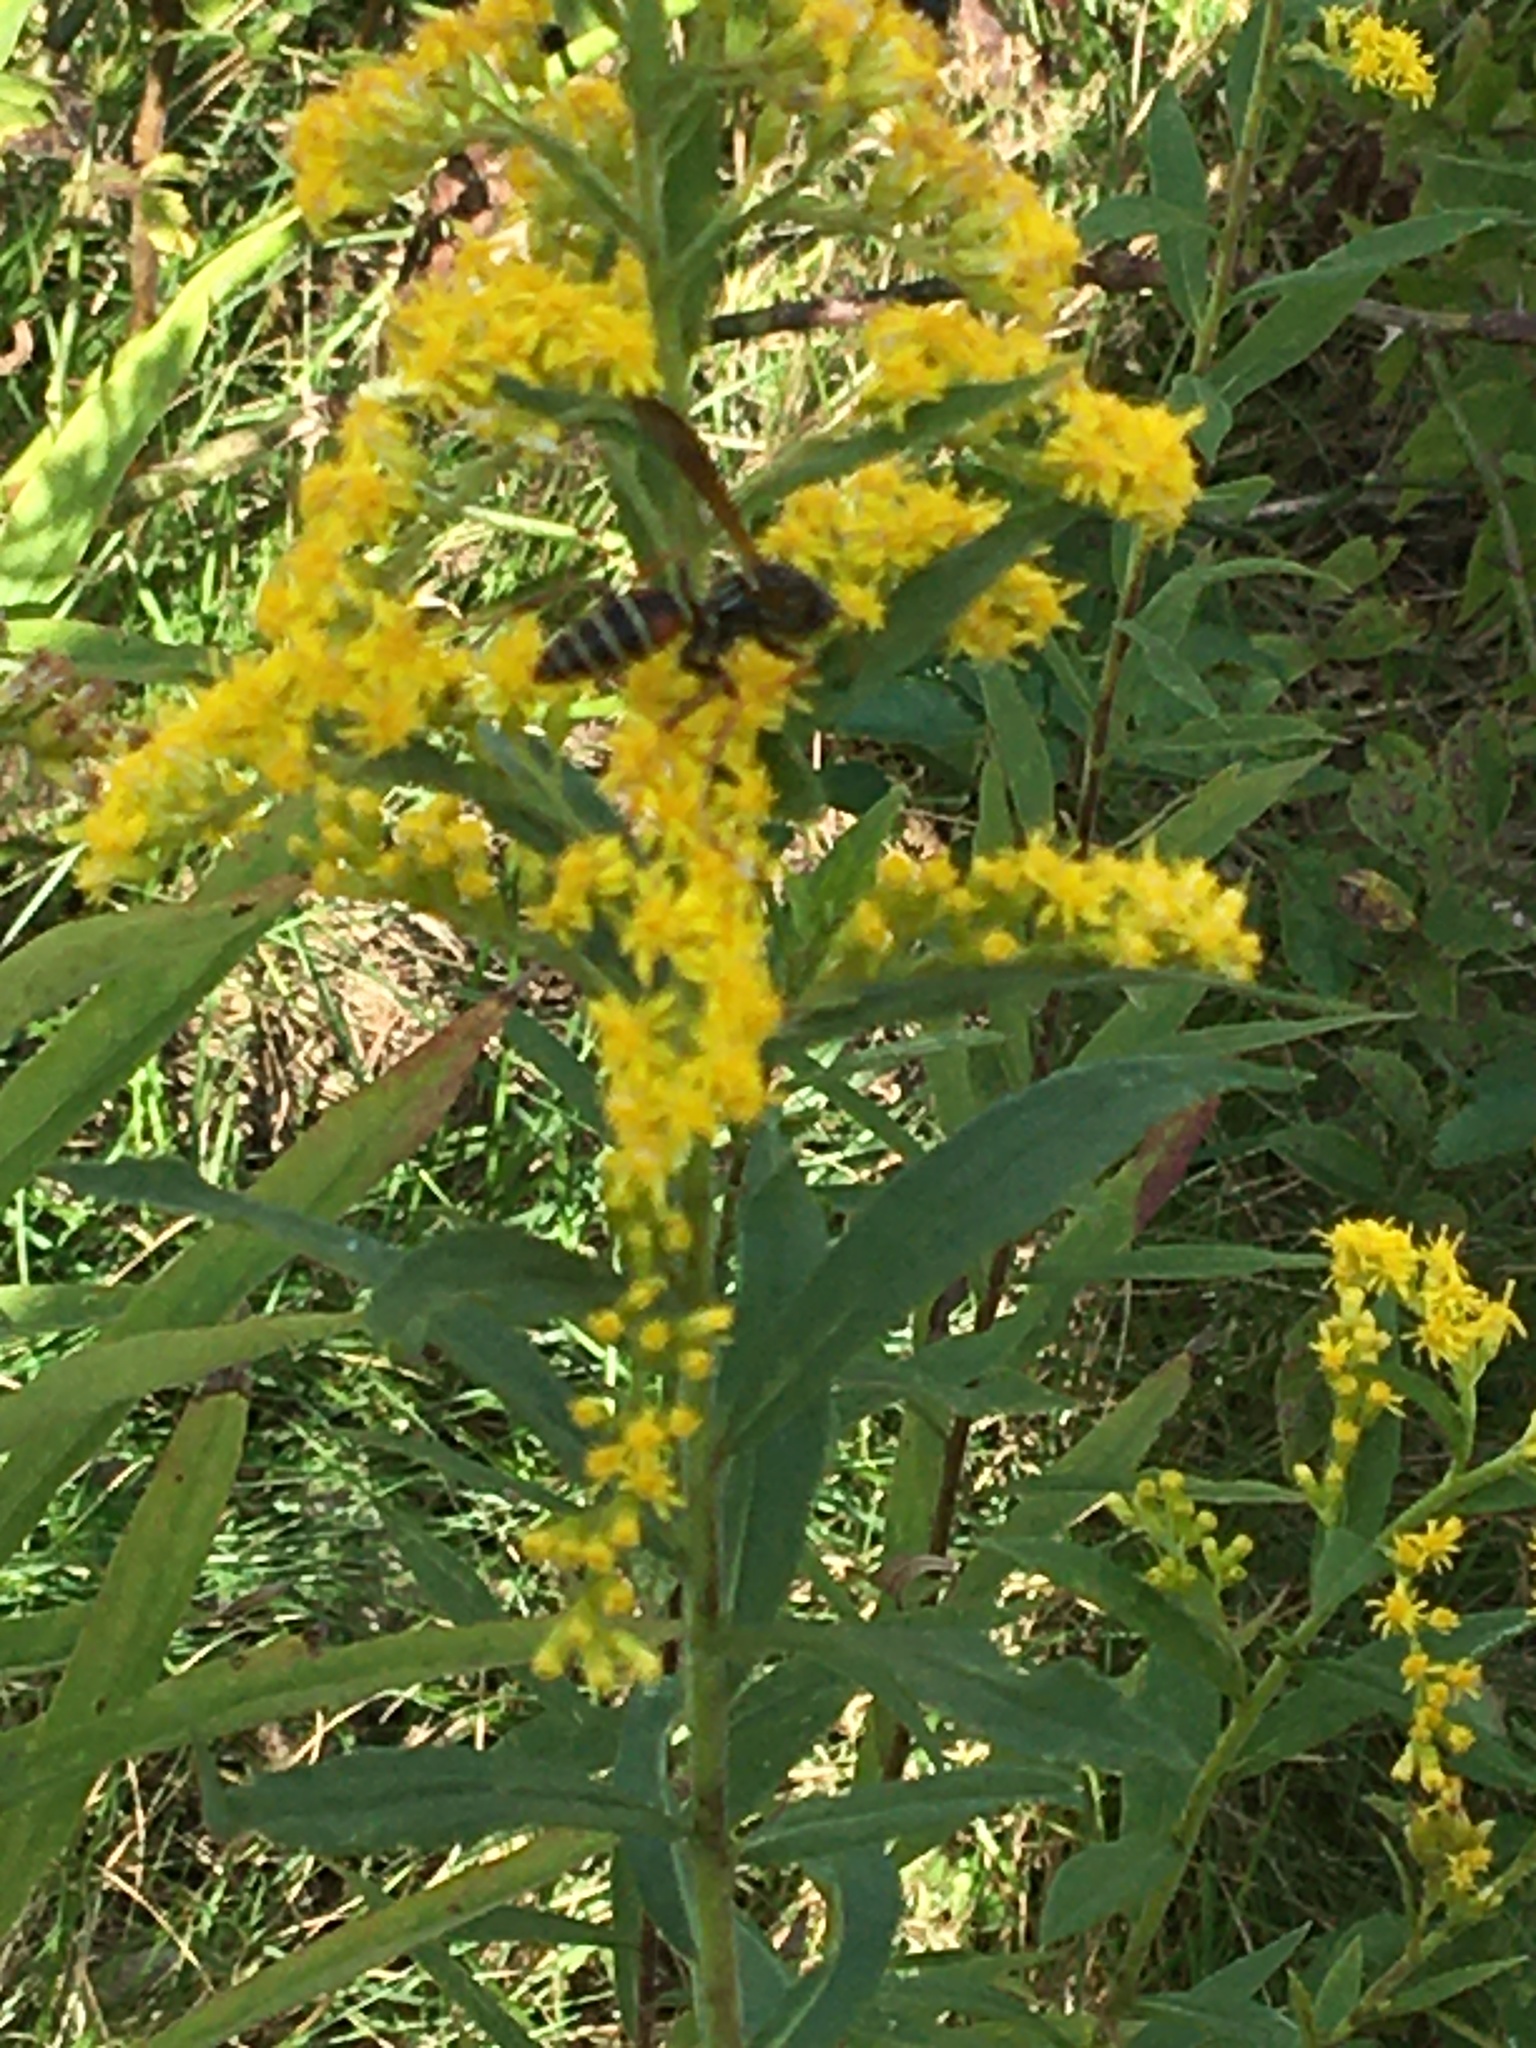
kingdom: Animalia
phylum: Arthropoda
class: Insecta
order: Hymenoptera
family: Eumenidae
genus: Polistes
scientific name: Polistes fuscatus
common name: Dark paper wasp
